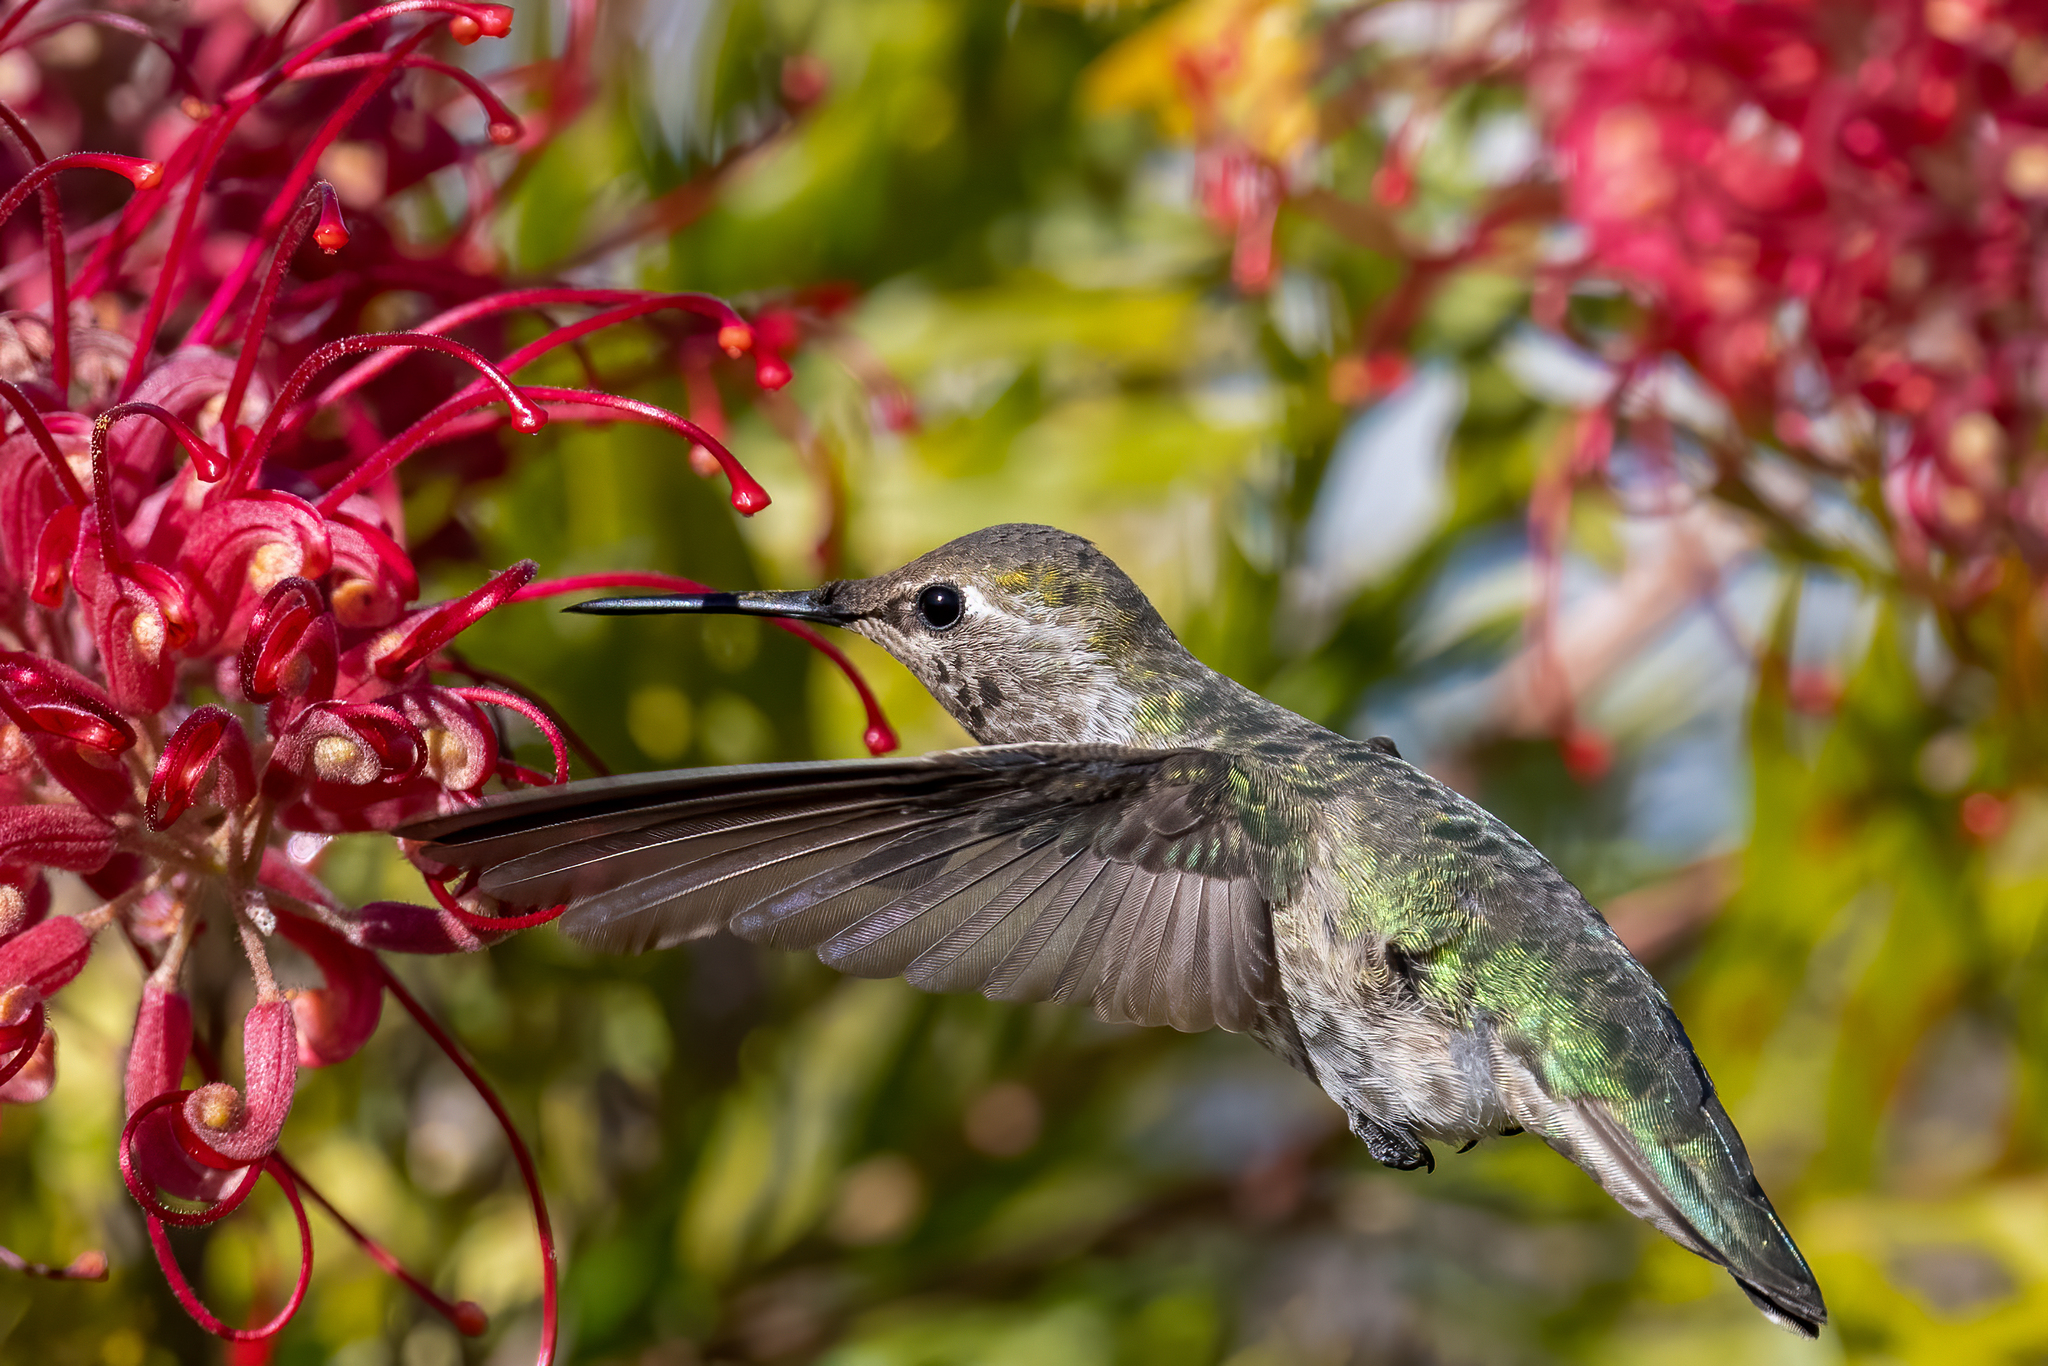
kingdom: Animalia
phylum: Chordata
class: Aves
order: Apodiformes
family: Trochilidae
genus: Calypte
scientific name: Calypte anna
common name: Anna's hummingbird
